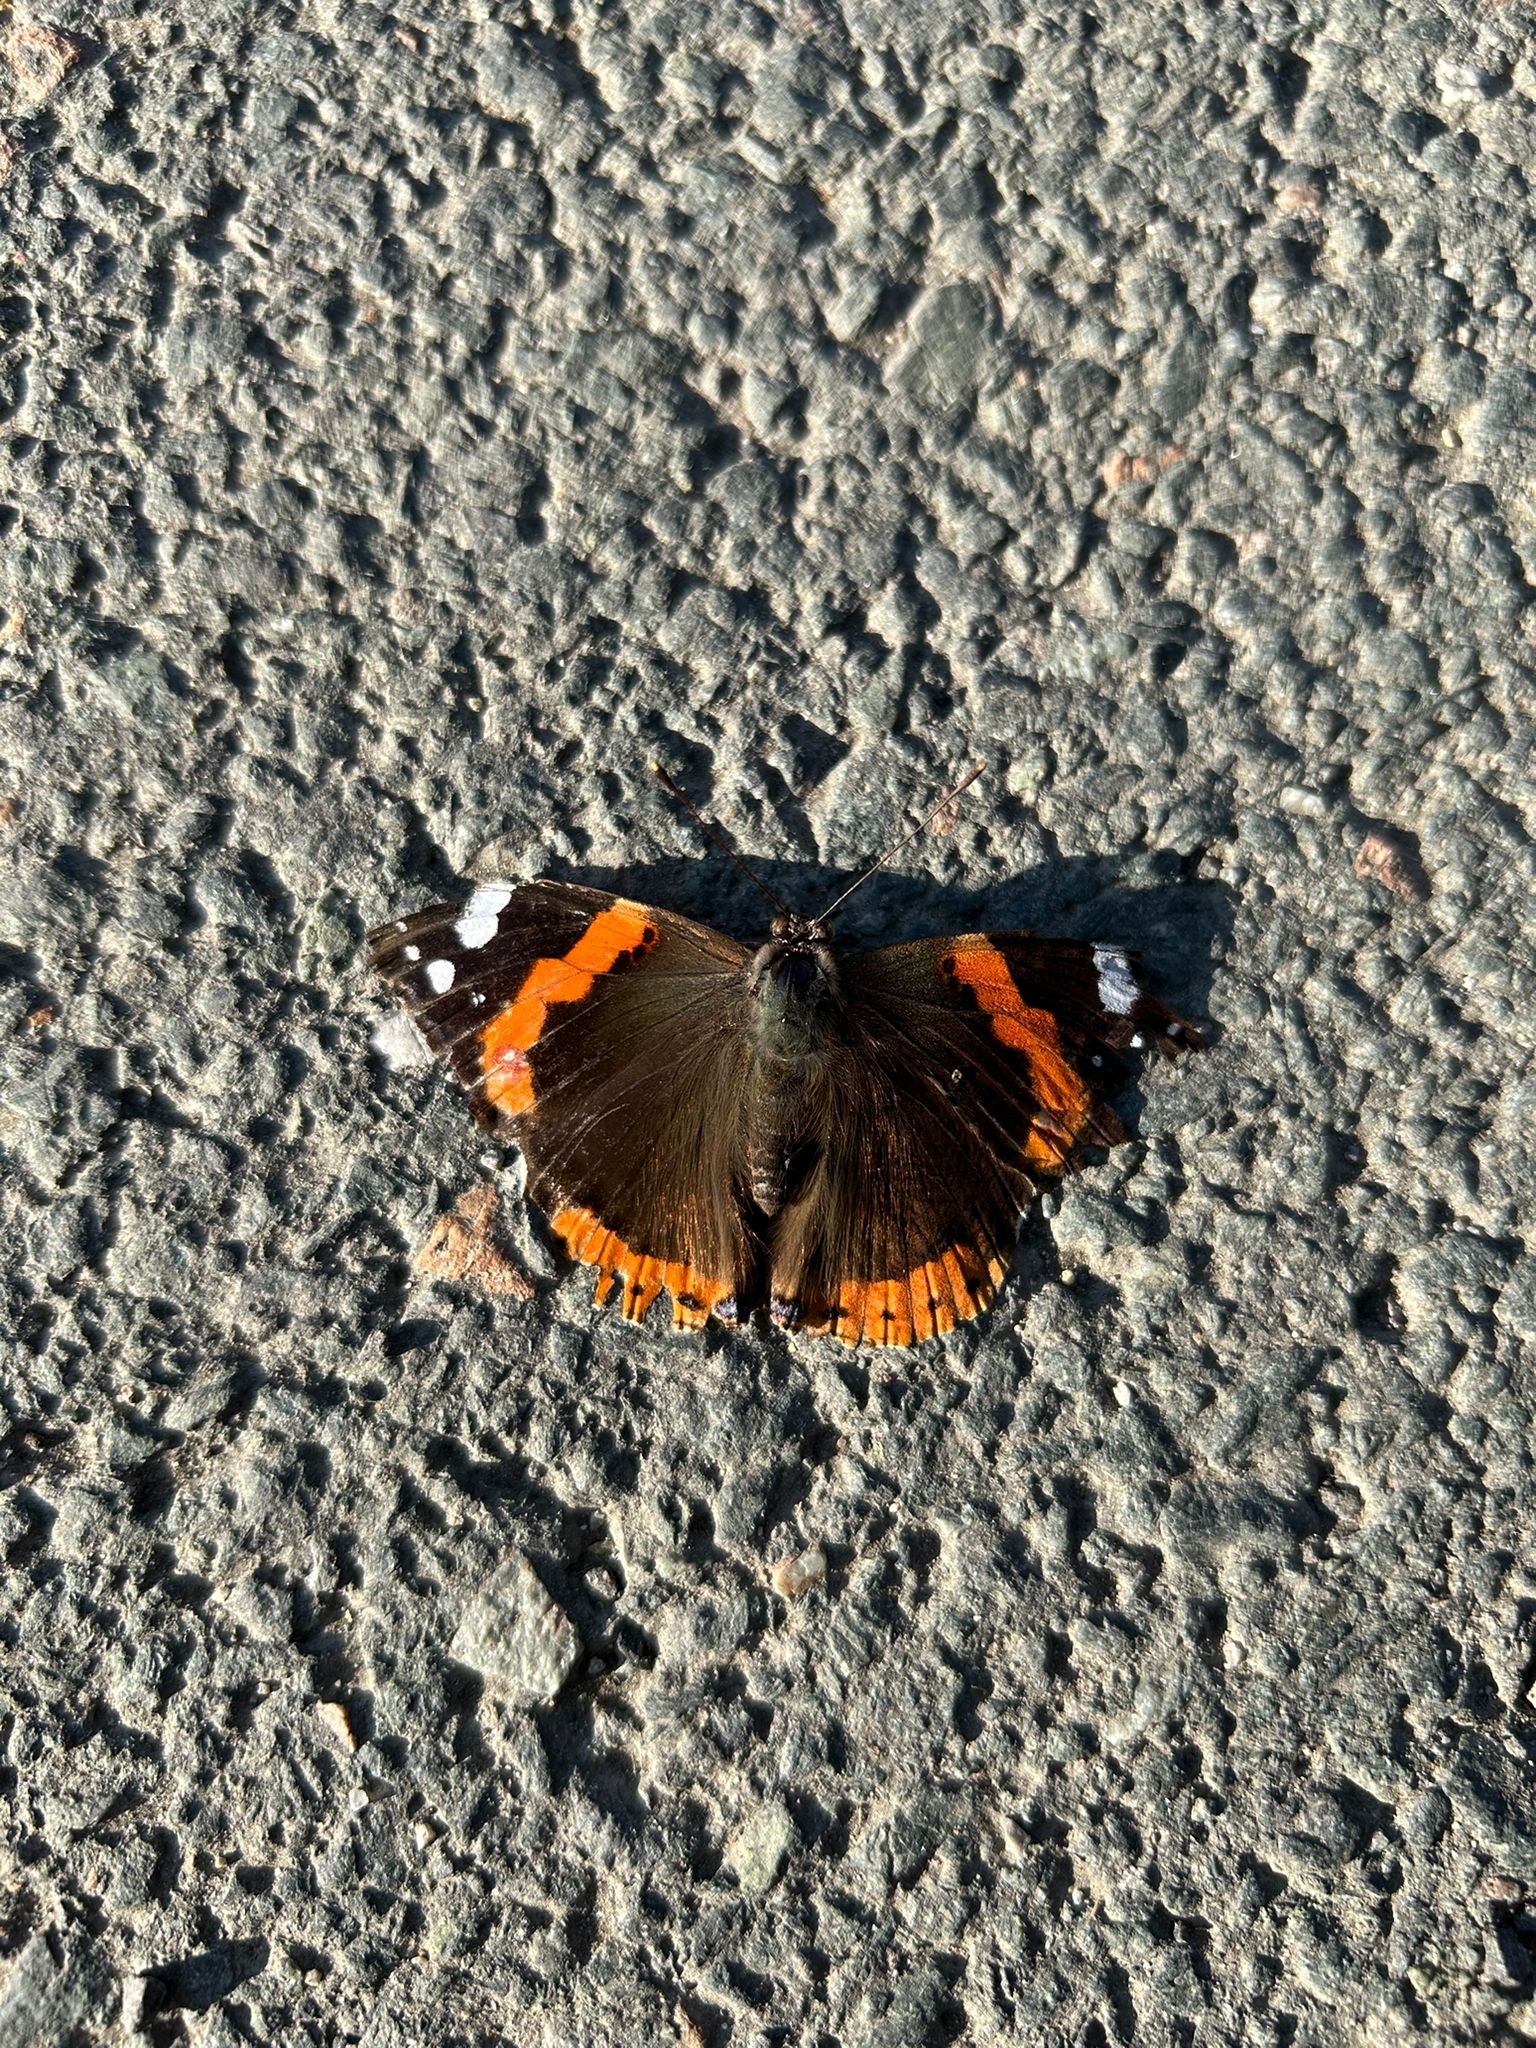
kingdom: Animalia
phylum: Arthropoda
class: Insecta
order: Lepidoptera
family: Nymphalidae
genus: Vanessa
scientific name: Vanessa atalanta
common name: Red admiral
